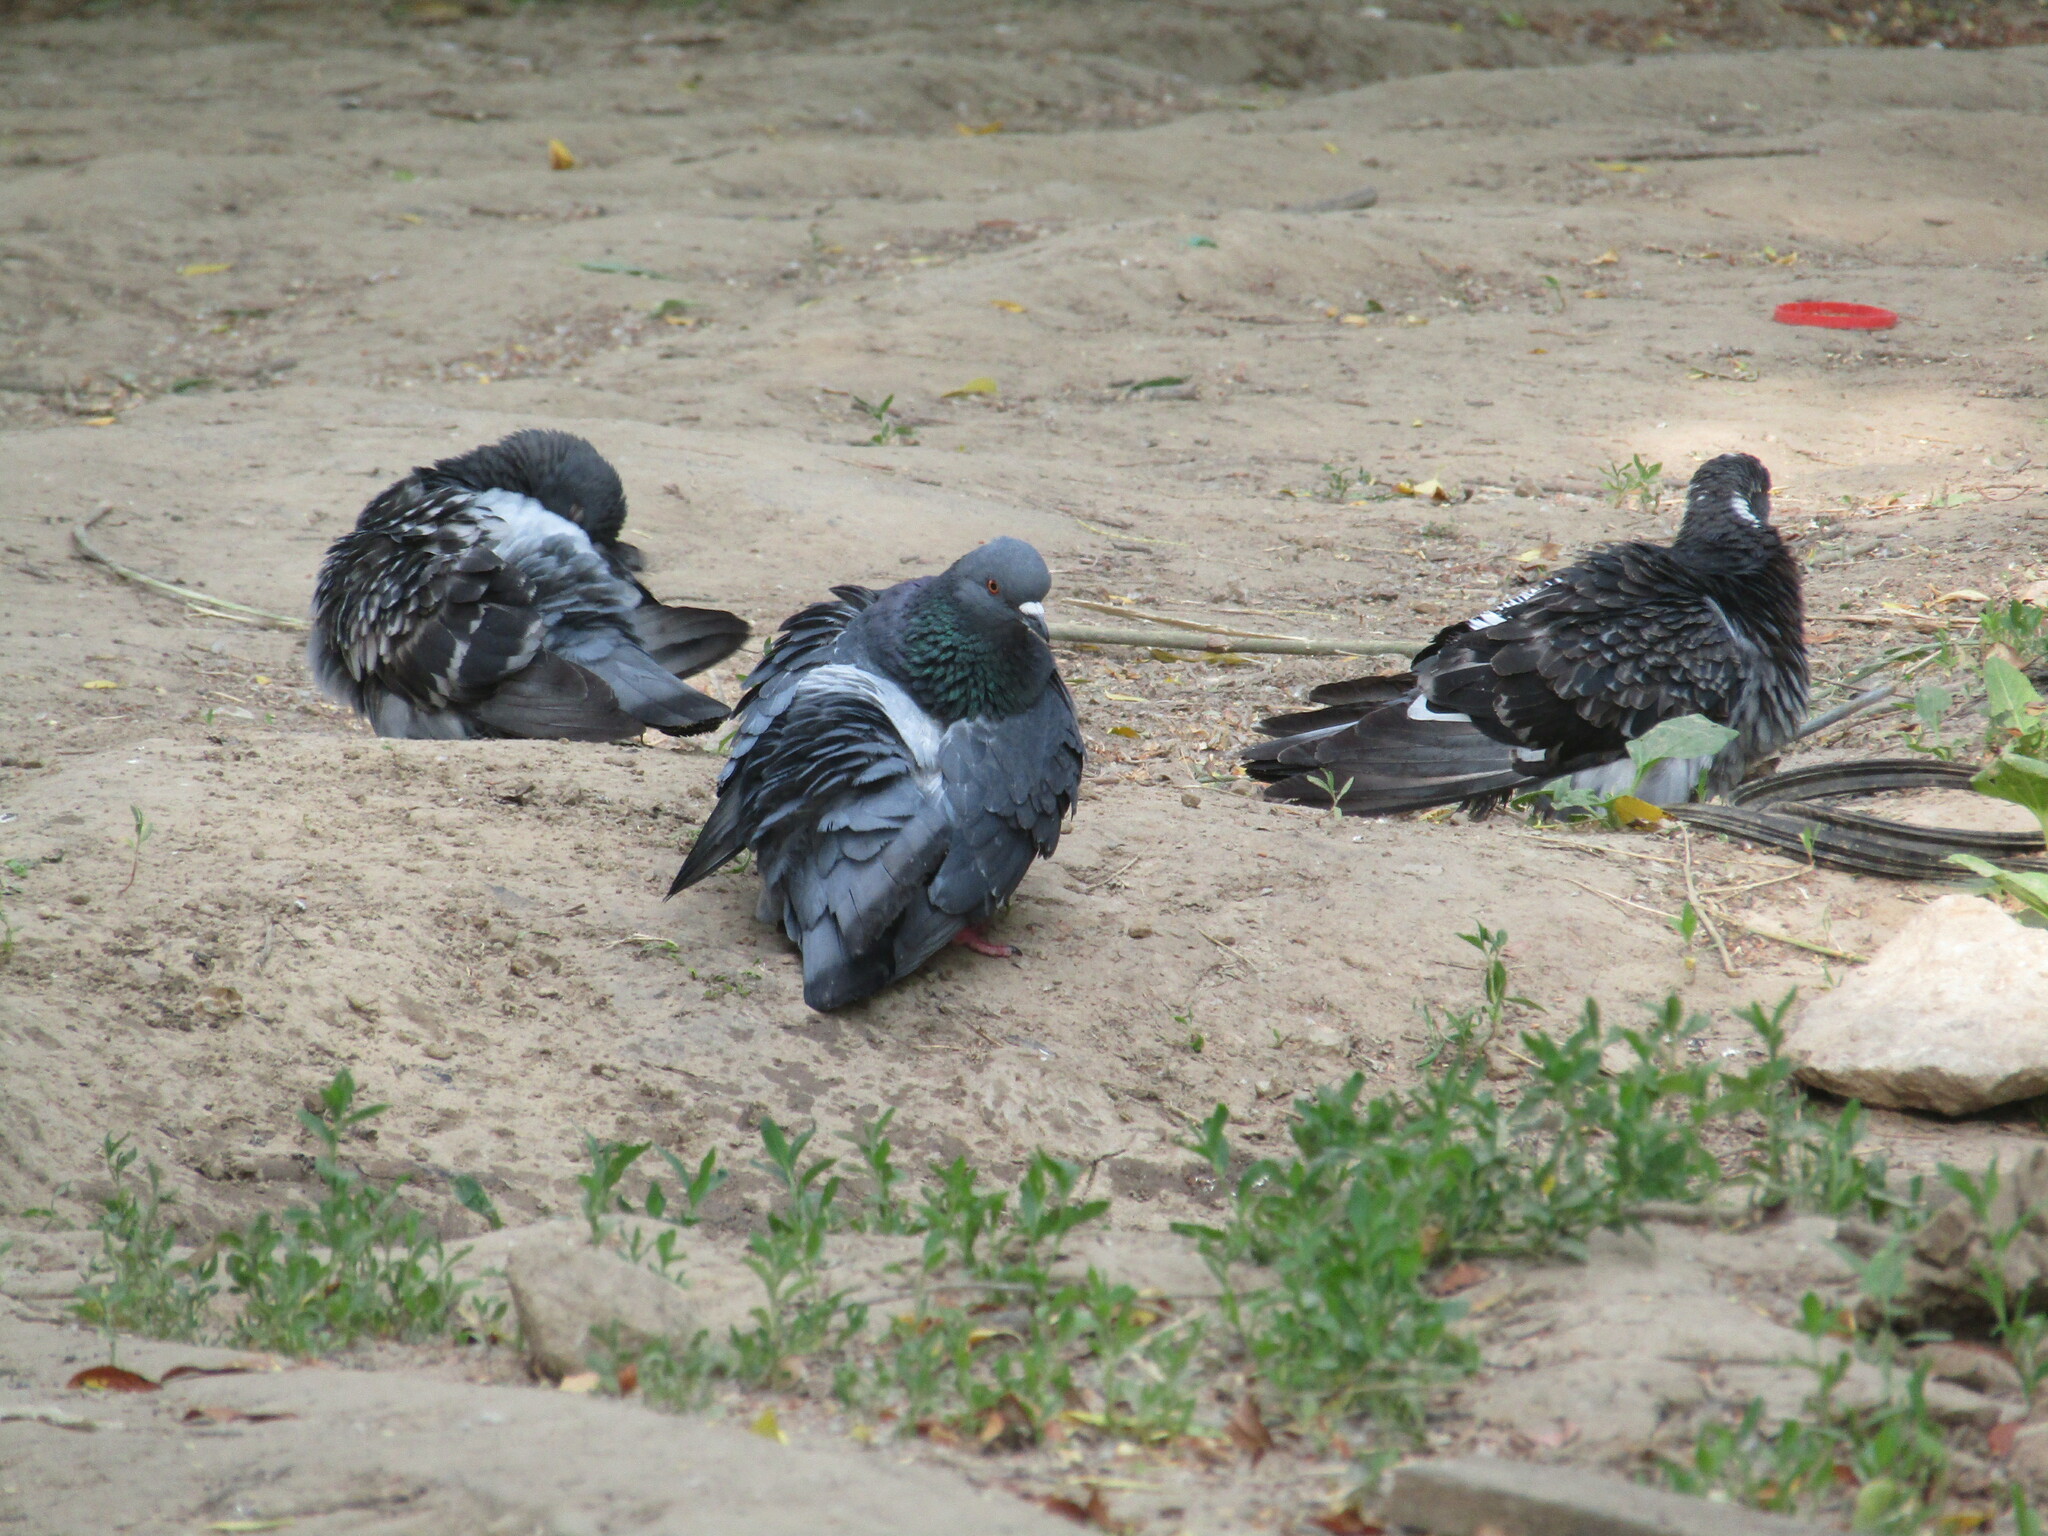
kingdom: Animalia
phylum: Chordata
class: Aves
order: Columbiformes
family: Columbidae
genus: Columba
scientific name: Columba livia
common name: Rock pigeon
